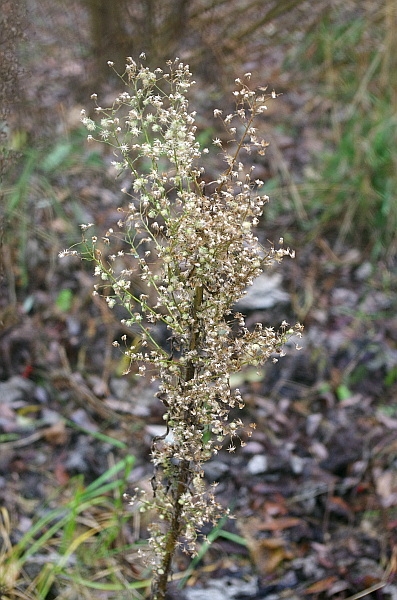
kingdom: Plantae
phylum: Tracheophyta
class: Magnoliopsida
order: Asterales
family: Asteraceae
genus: Erigeron
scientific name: Erigeron canadensis
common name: Canadian fleabane
